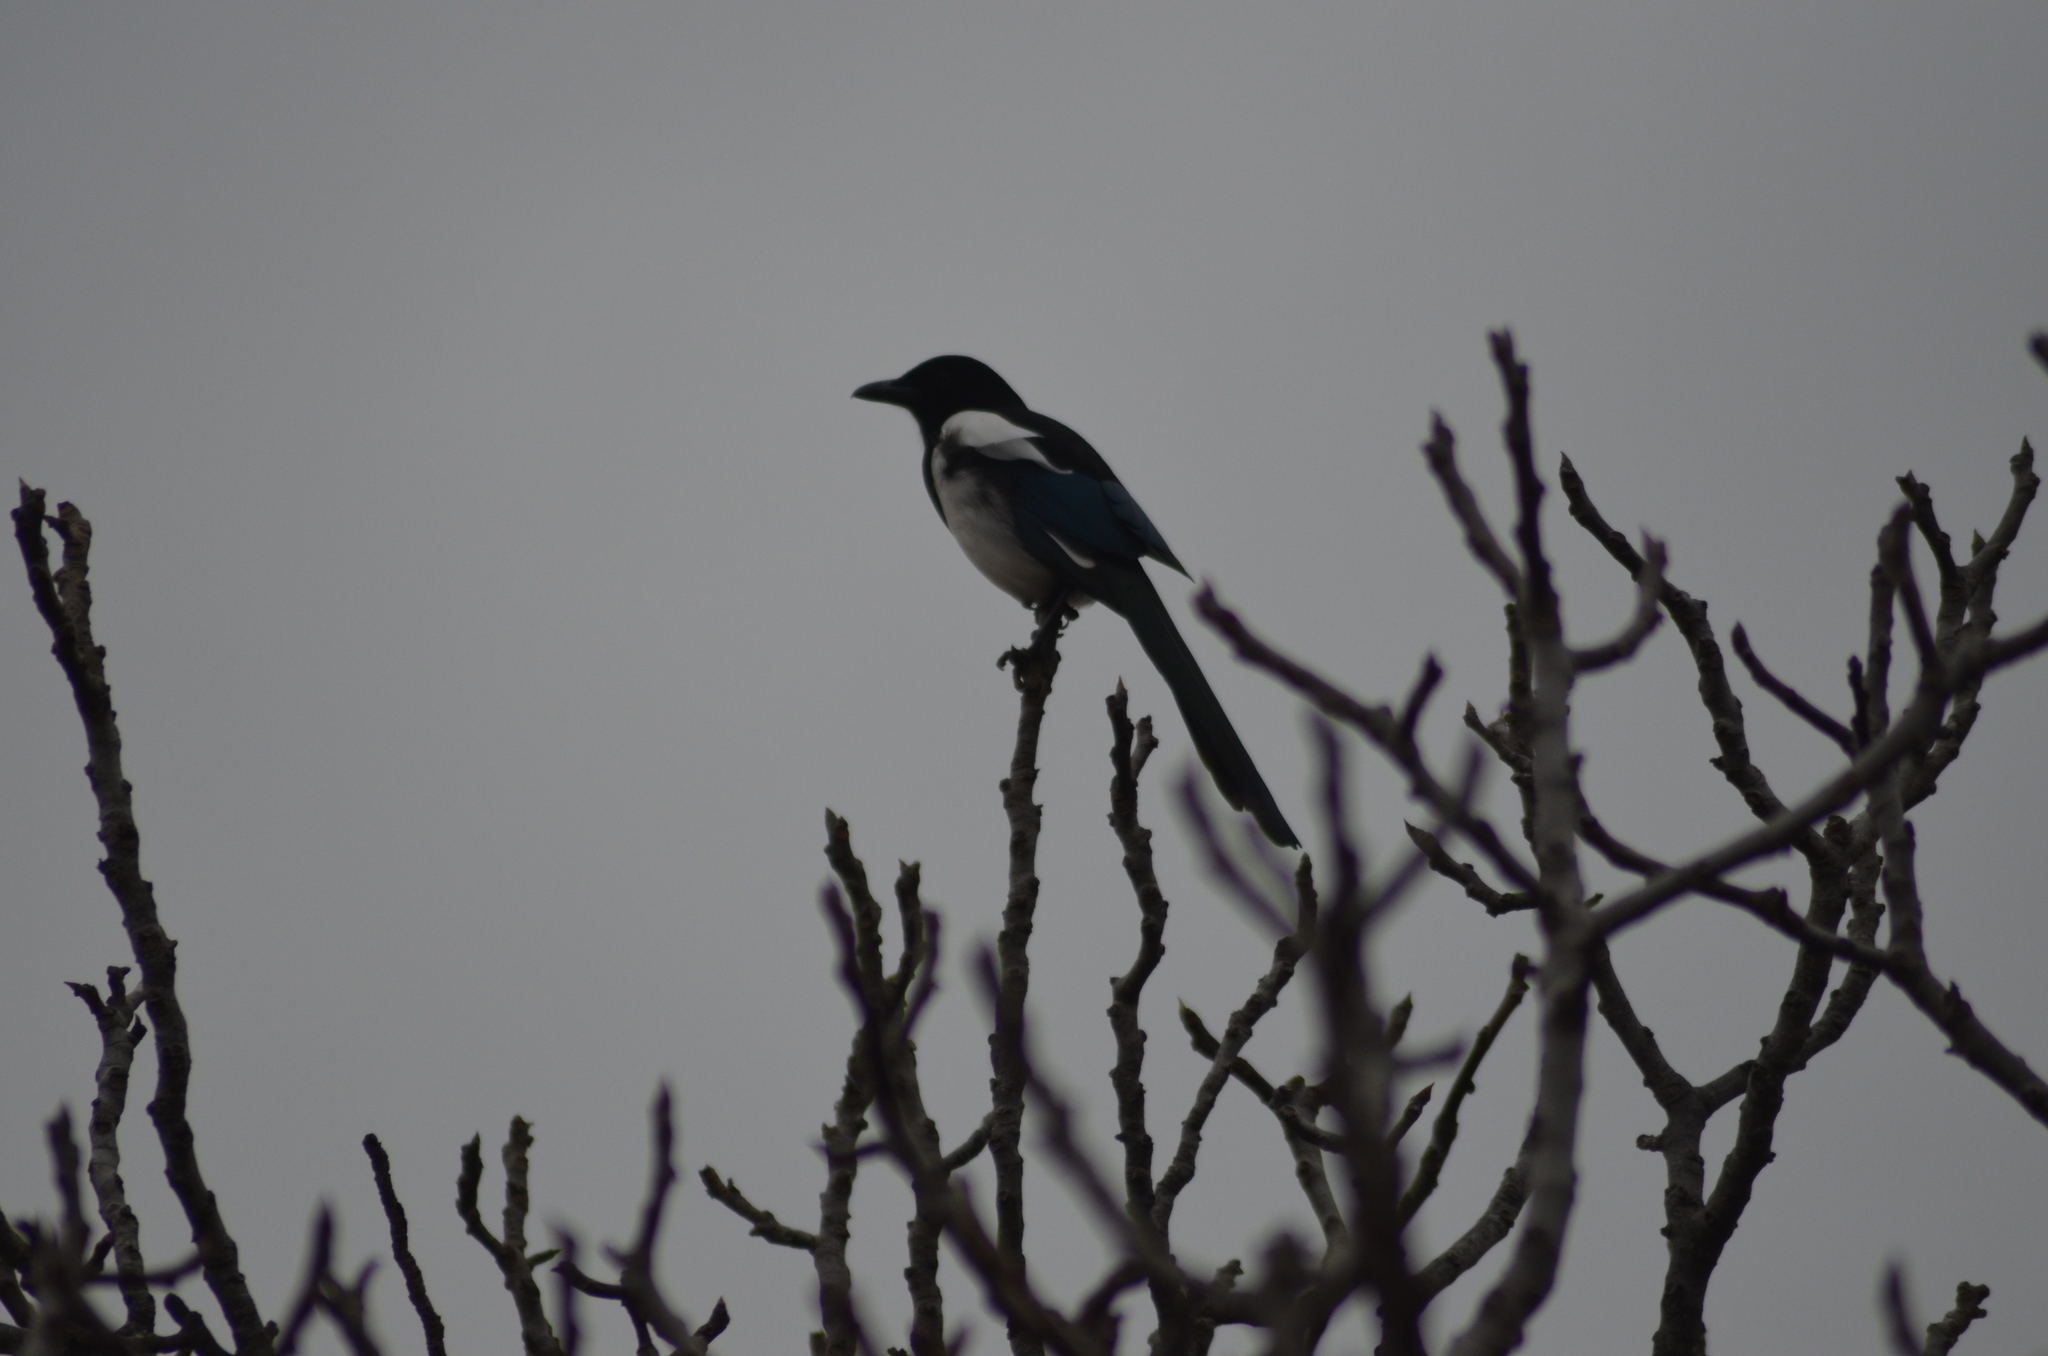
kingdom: Animalia
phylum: Chordata
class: Aves
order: Passeriformes
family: Corvidae
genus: Pica
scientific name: Pica pica
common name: Eurasian magpie
